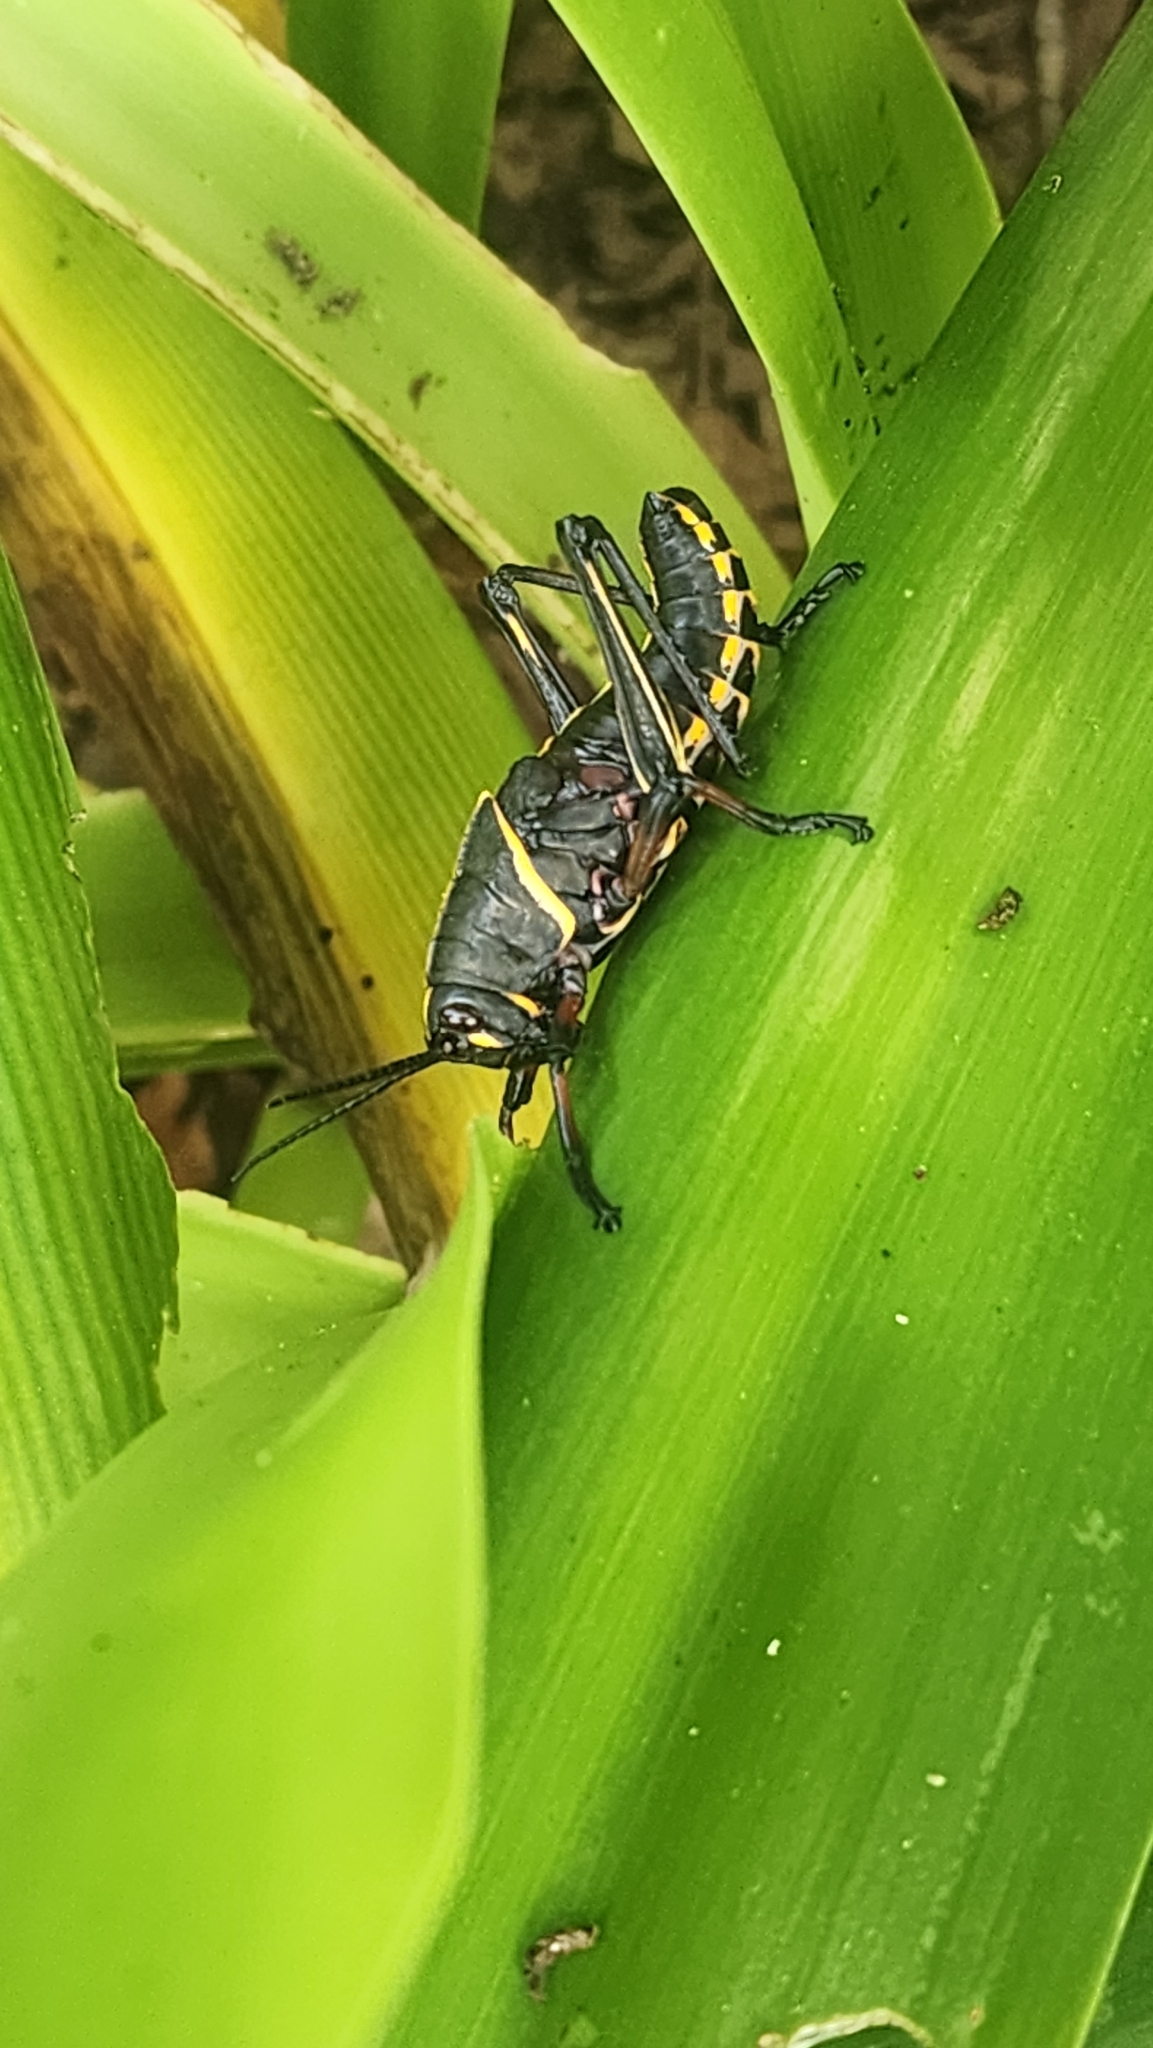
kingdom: Animalia
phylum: Arthropoda
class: Insecta
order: Orthoptera
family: Romaleidae
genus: Romalea
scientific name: Romalea microptera
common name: Eastern lubber grasshopper
